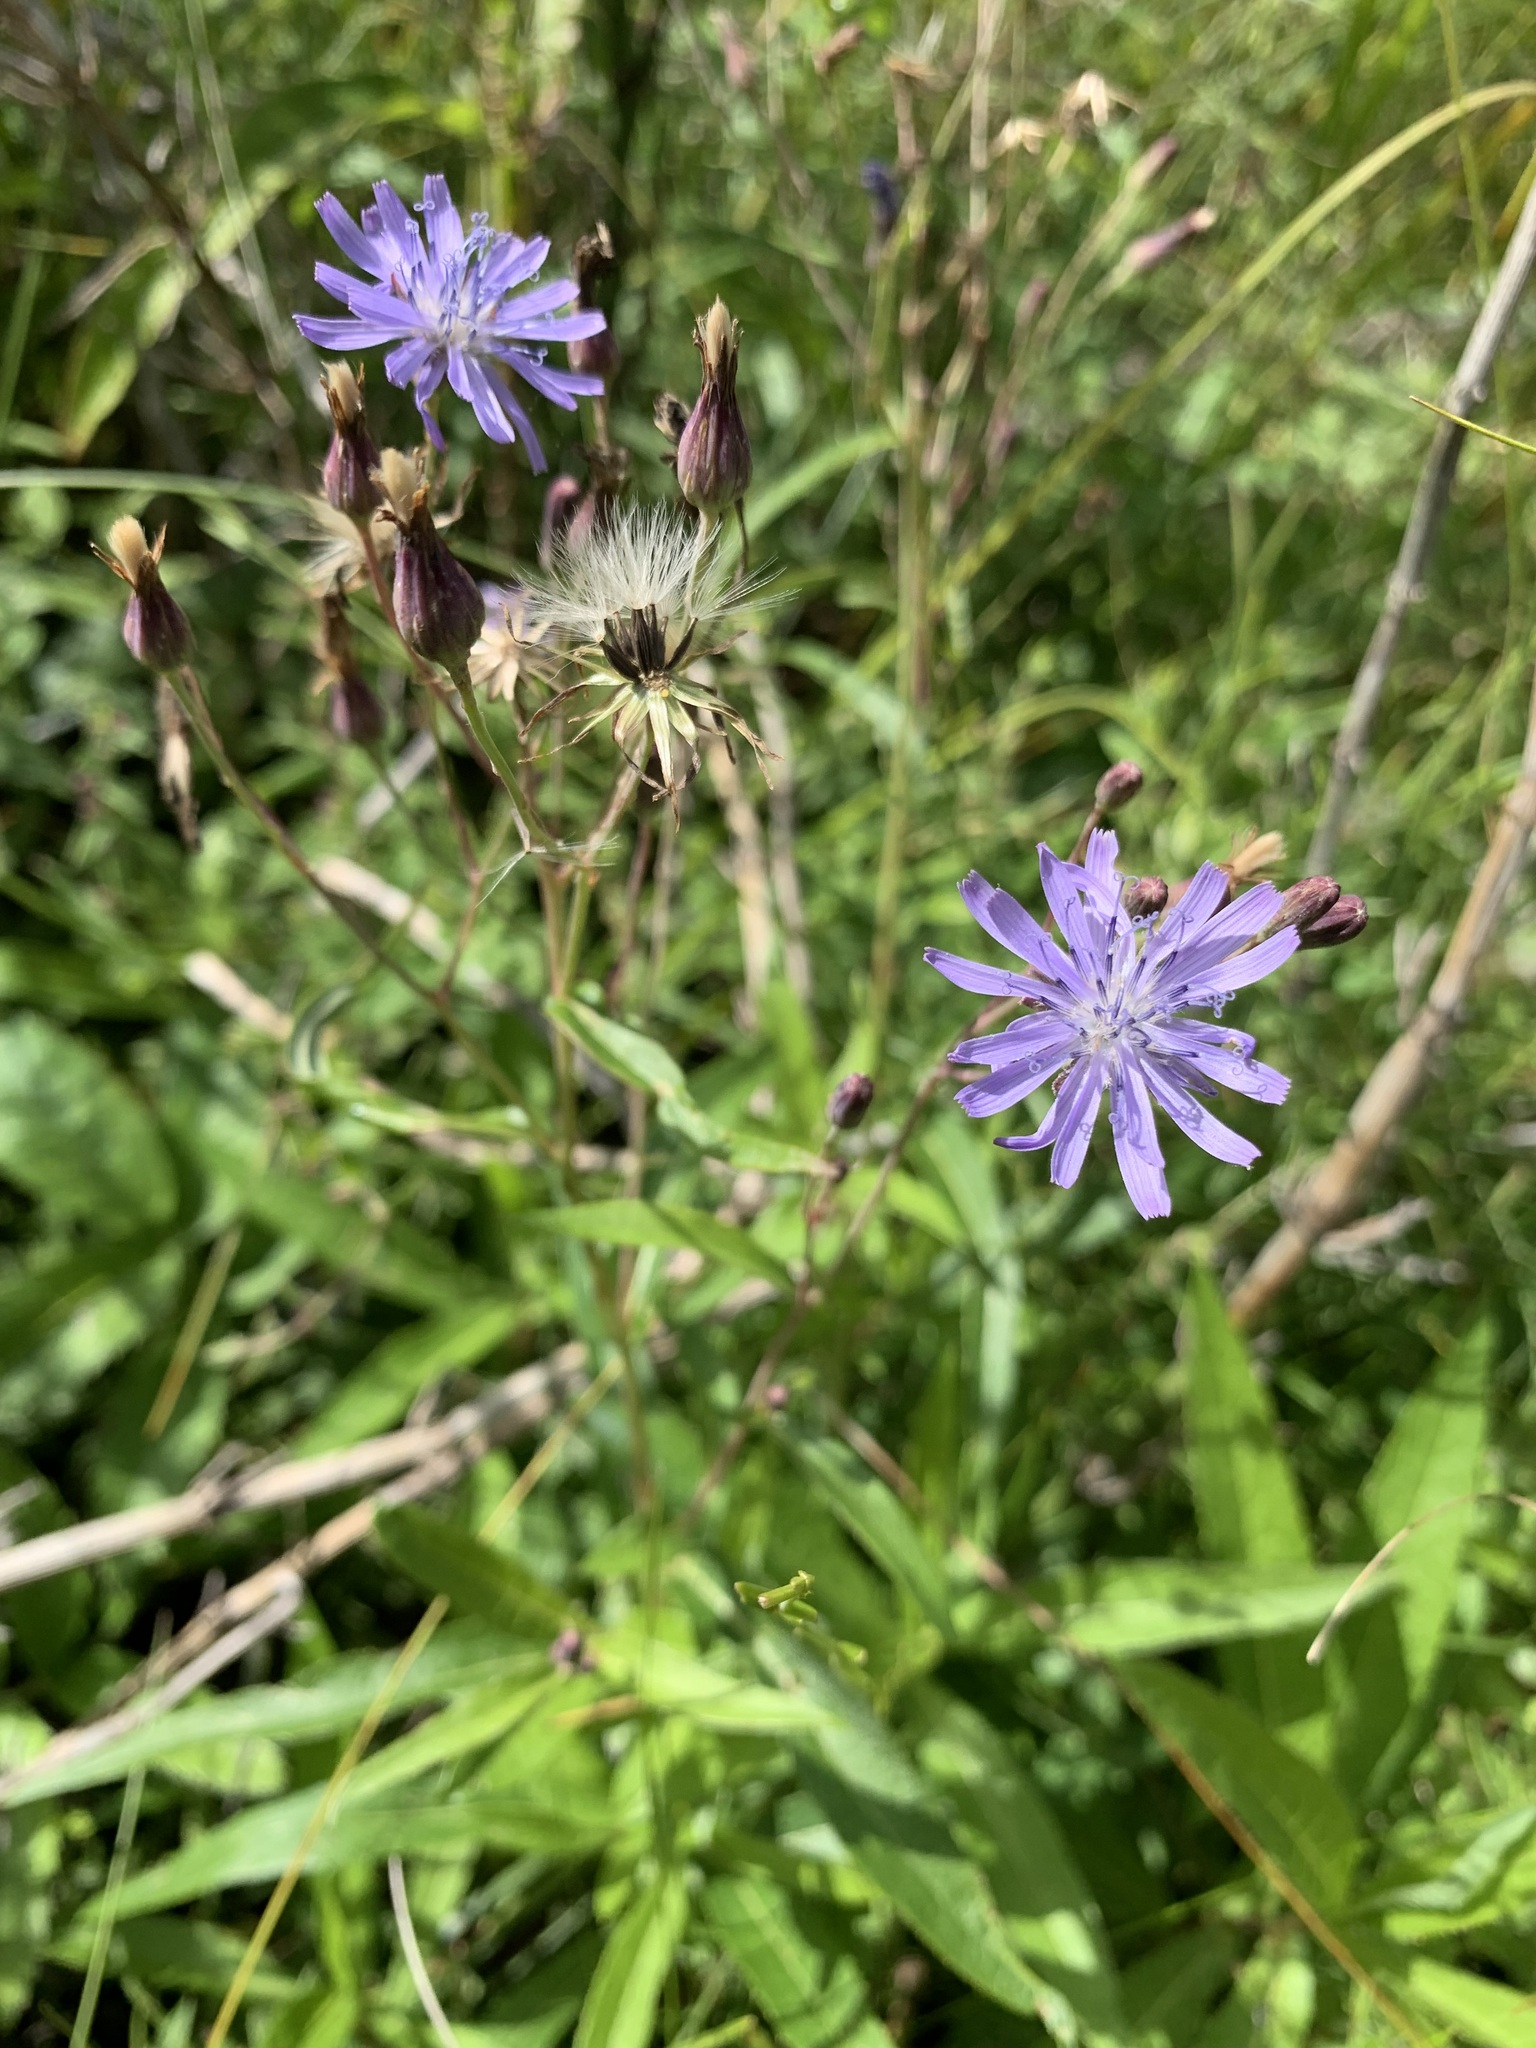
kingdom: Plantae
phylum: Tracheophyta
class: Magnoliopsida
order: Asterales
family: Asteraceae
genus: Lactuca
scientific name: Lactuca sibirica
